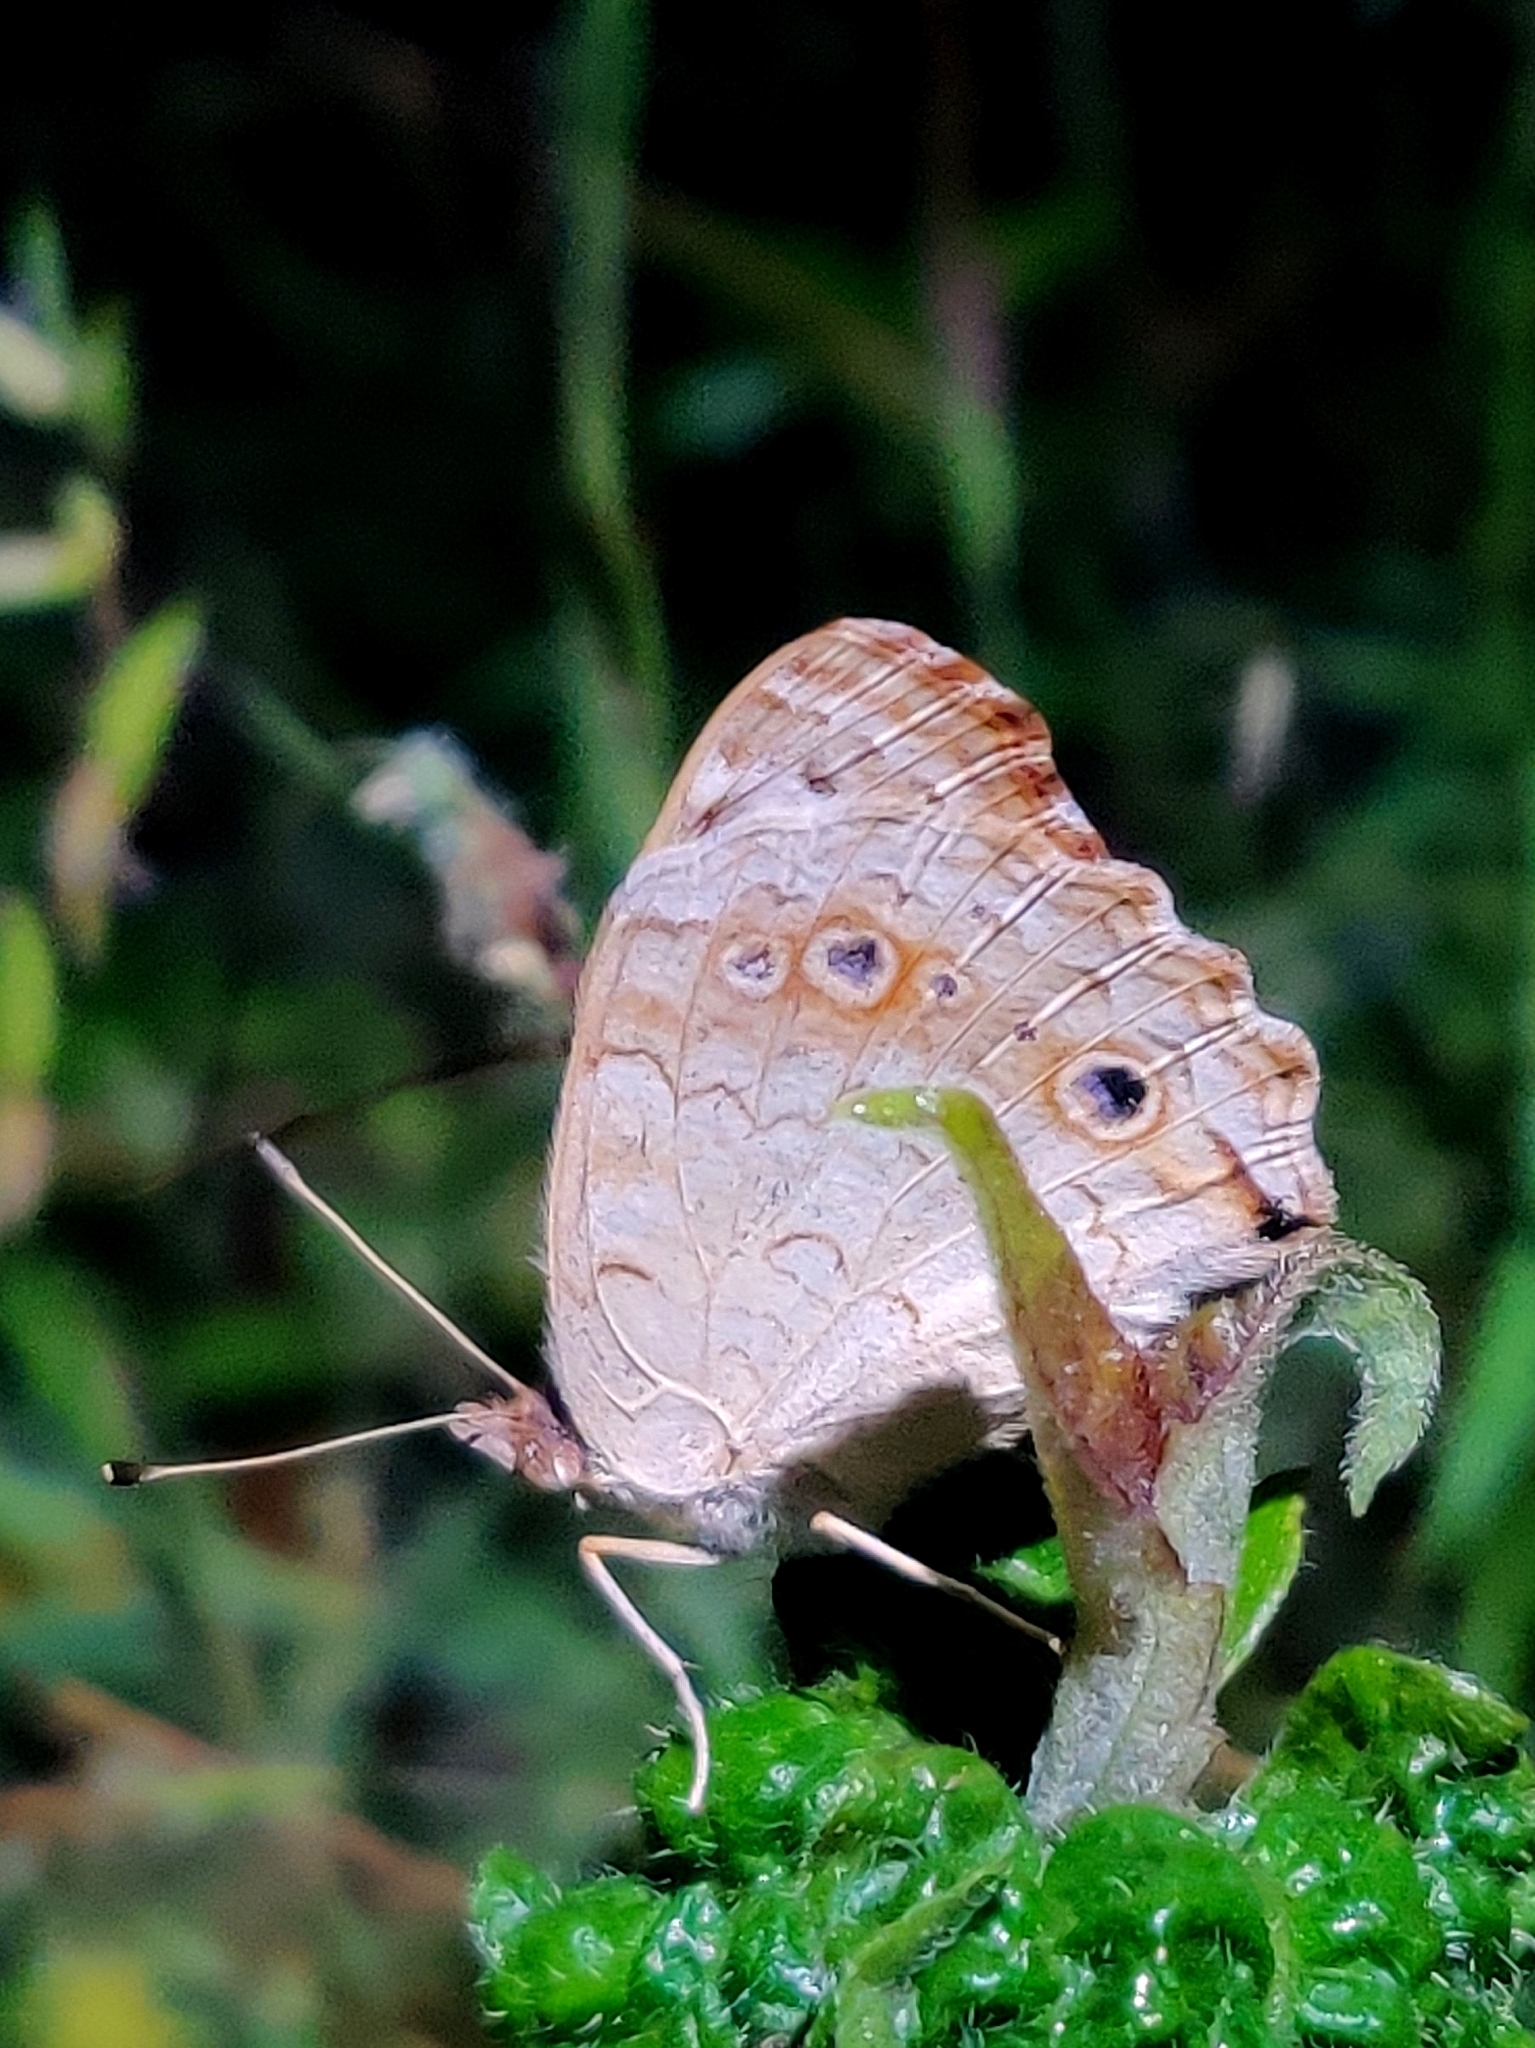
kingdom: Animalia
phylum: Arthropoda
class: Insecta
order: Lepidoptera
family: Nymphalidae
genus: Junonia
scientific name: Junonia orithya
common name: Blue pansy
